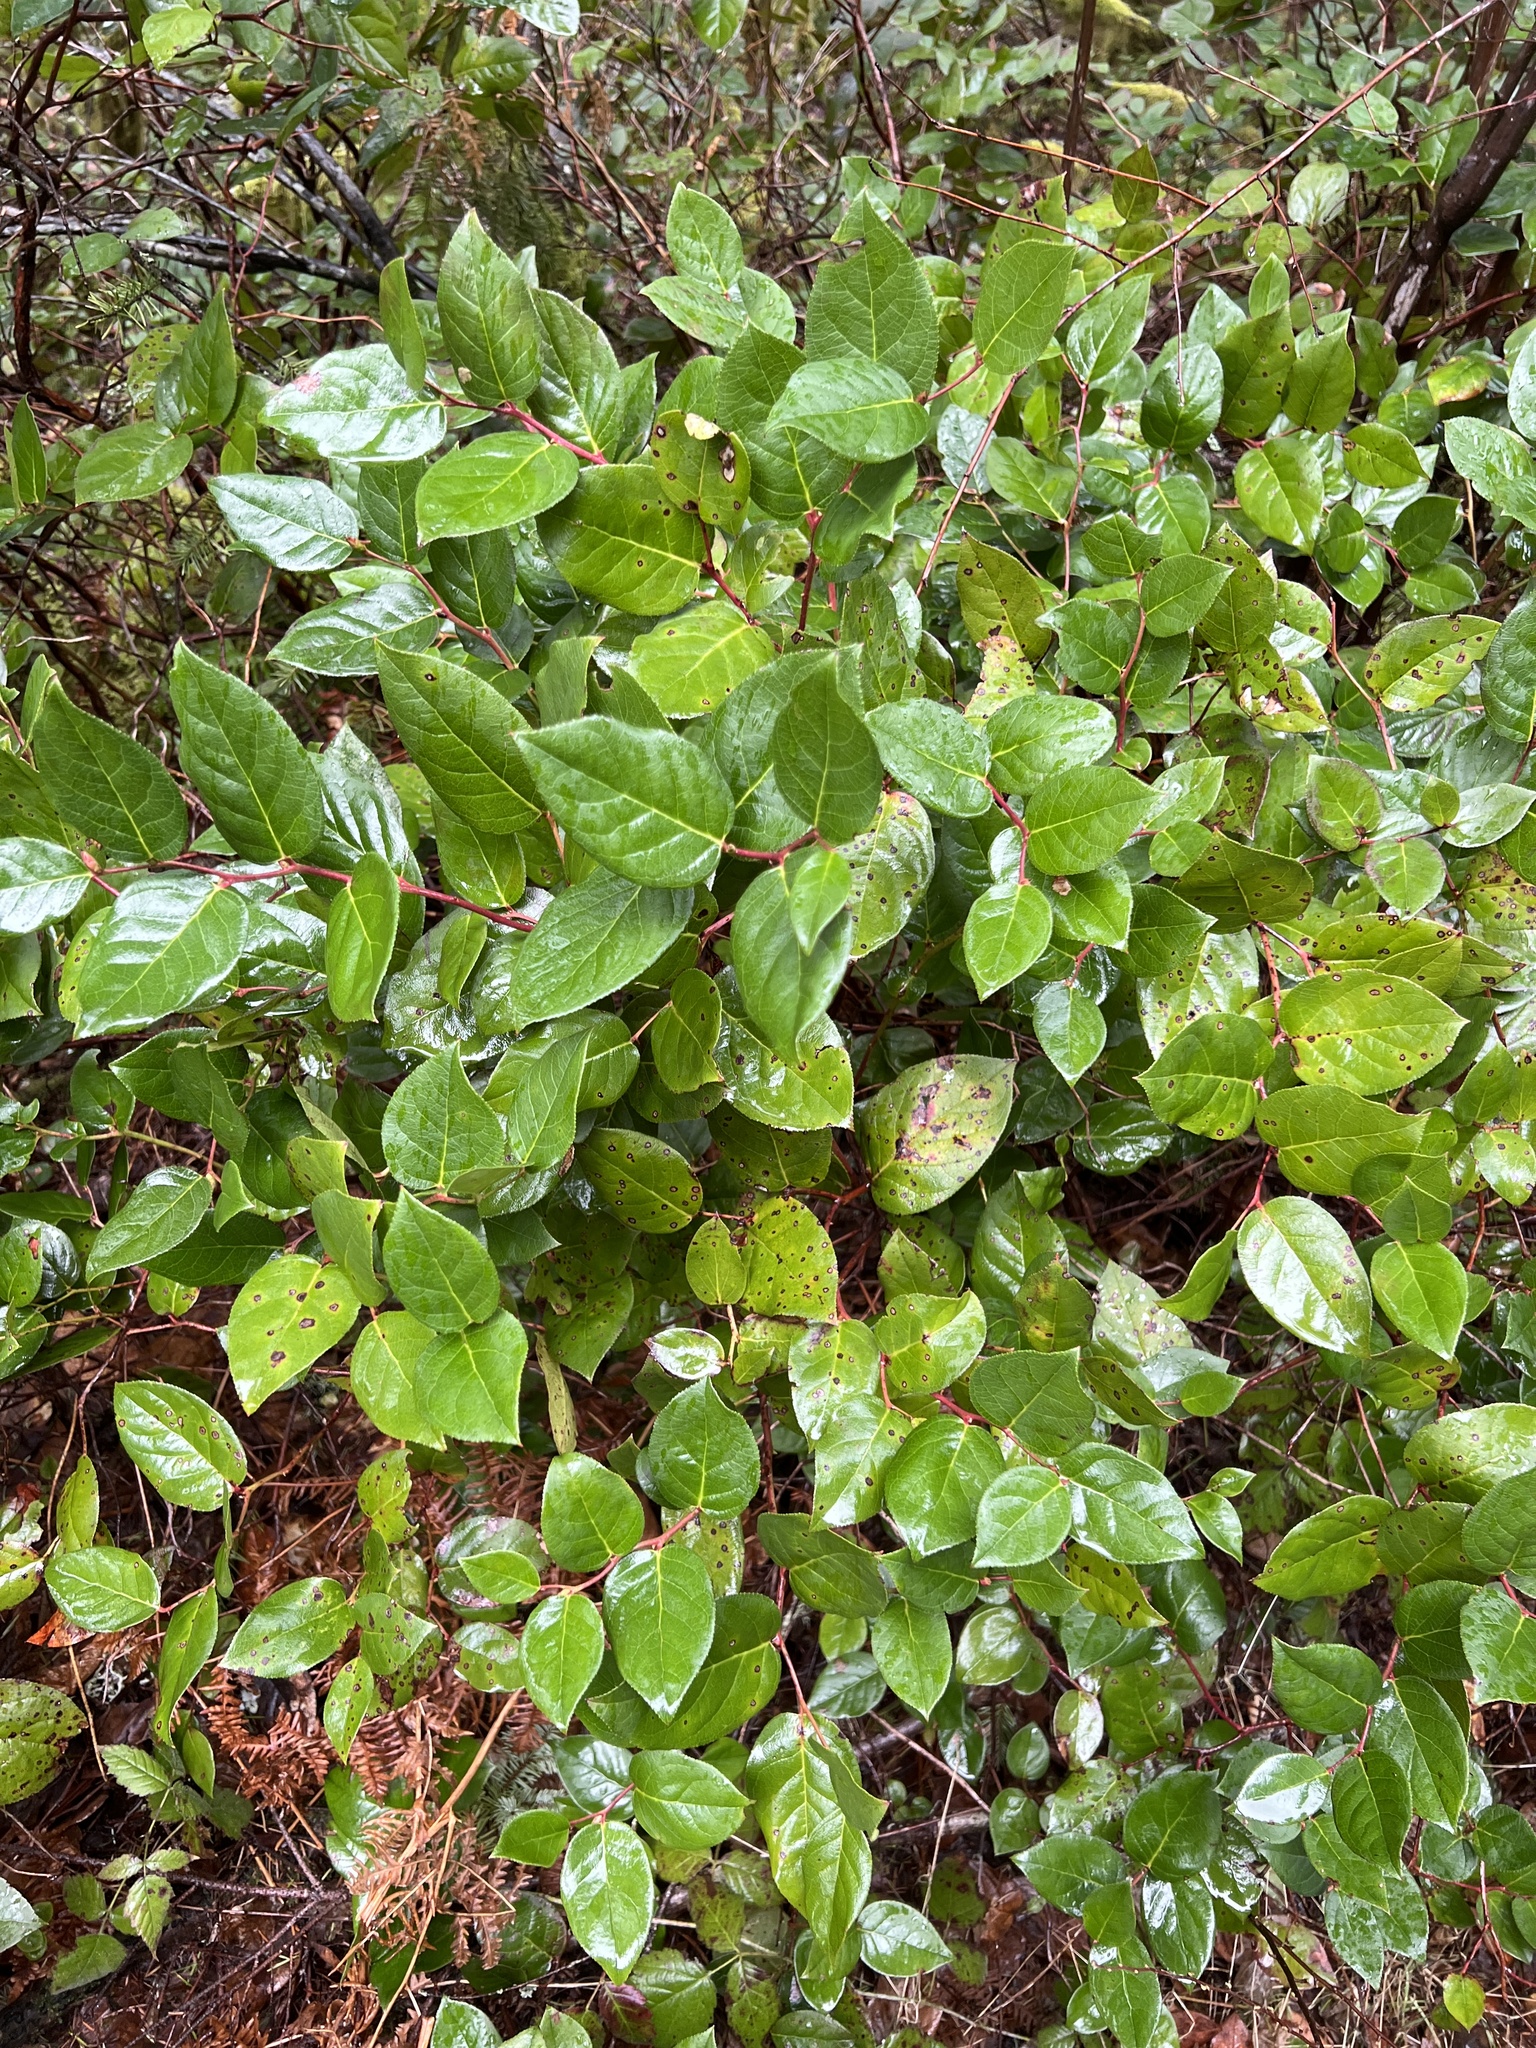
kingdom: Plantae
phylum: Tracheophyta
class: Magnoliopsida
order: Ericales
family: Ericaceae
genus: Gaultheria
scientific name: Gaultheria shallon
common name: Shallon
